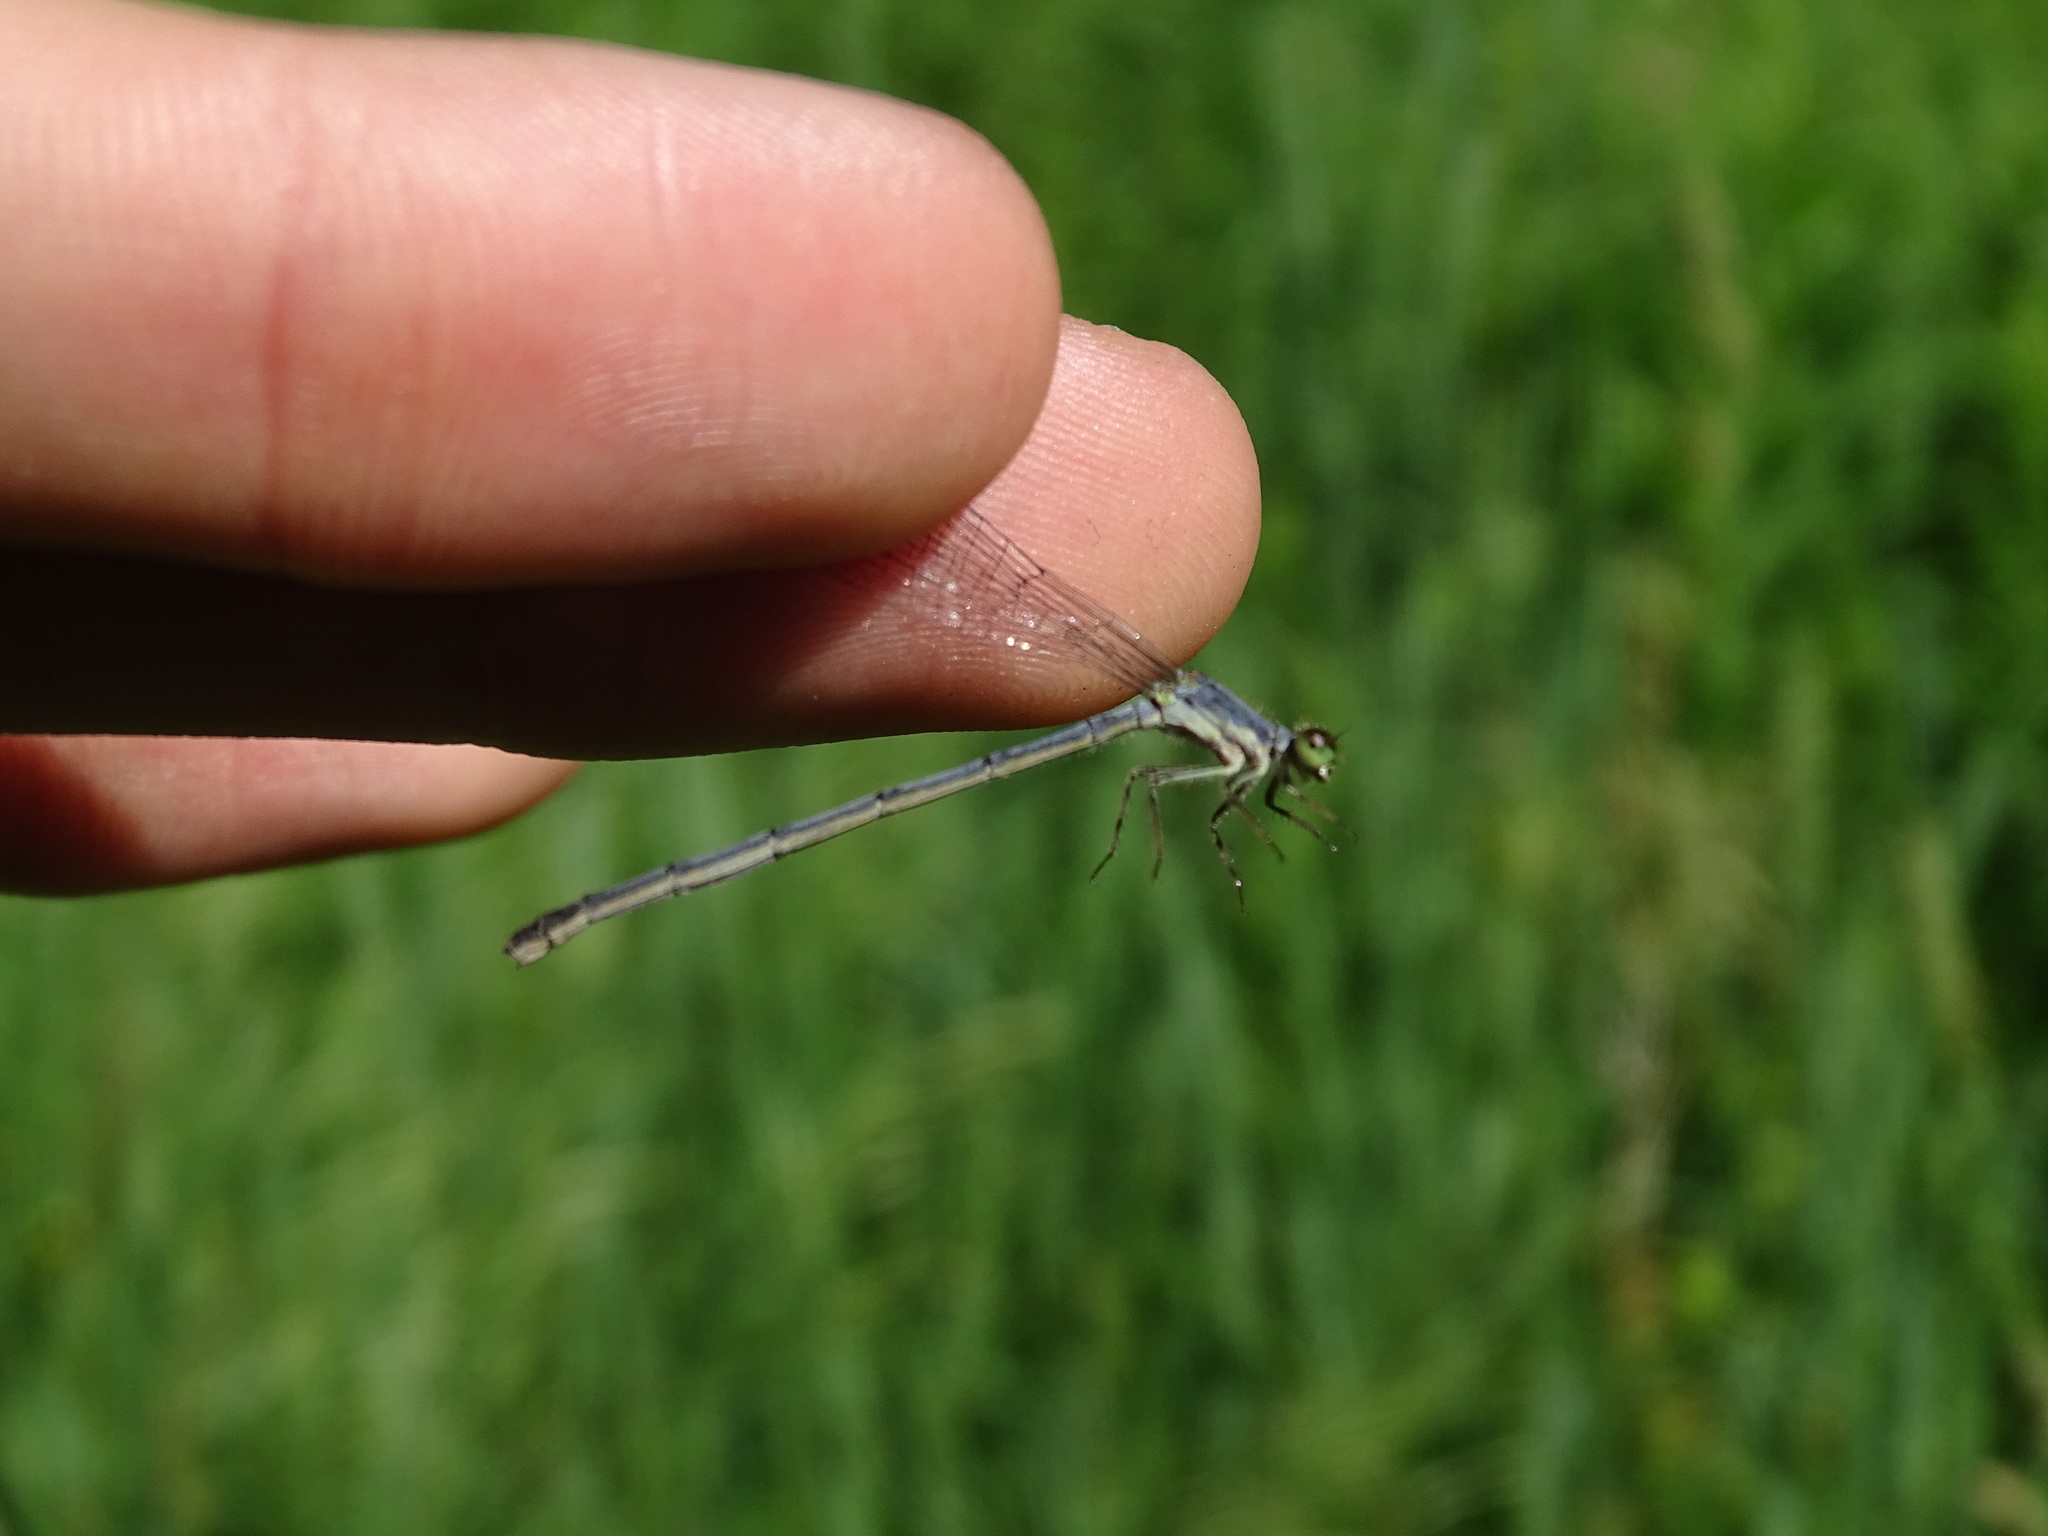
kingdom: Animalia
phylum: Arthropoda
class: Insecta
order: Odonata
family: Coenagrionidae
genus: Ischnura
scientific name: Ischnura verticalis
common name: Eastern forktail
